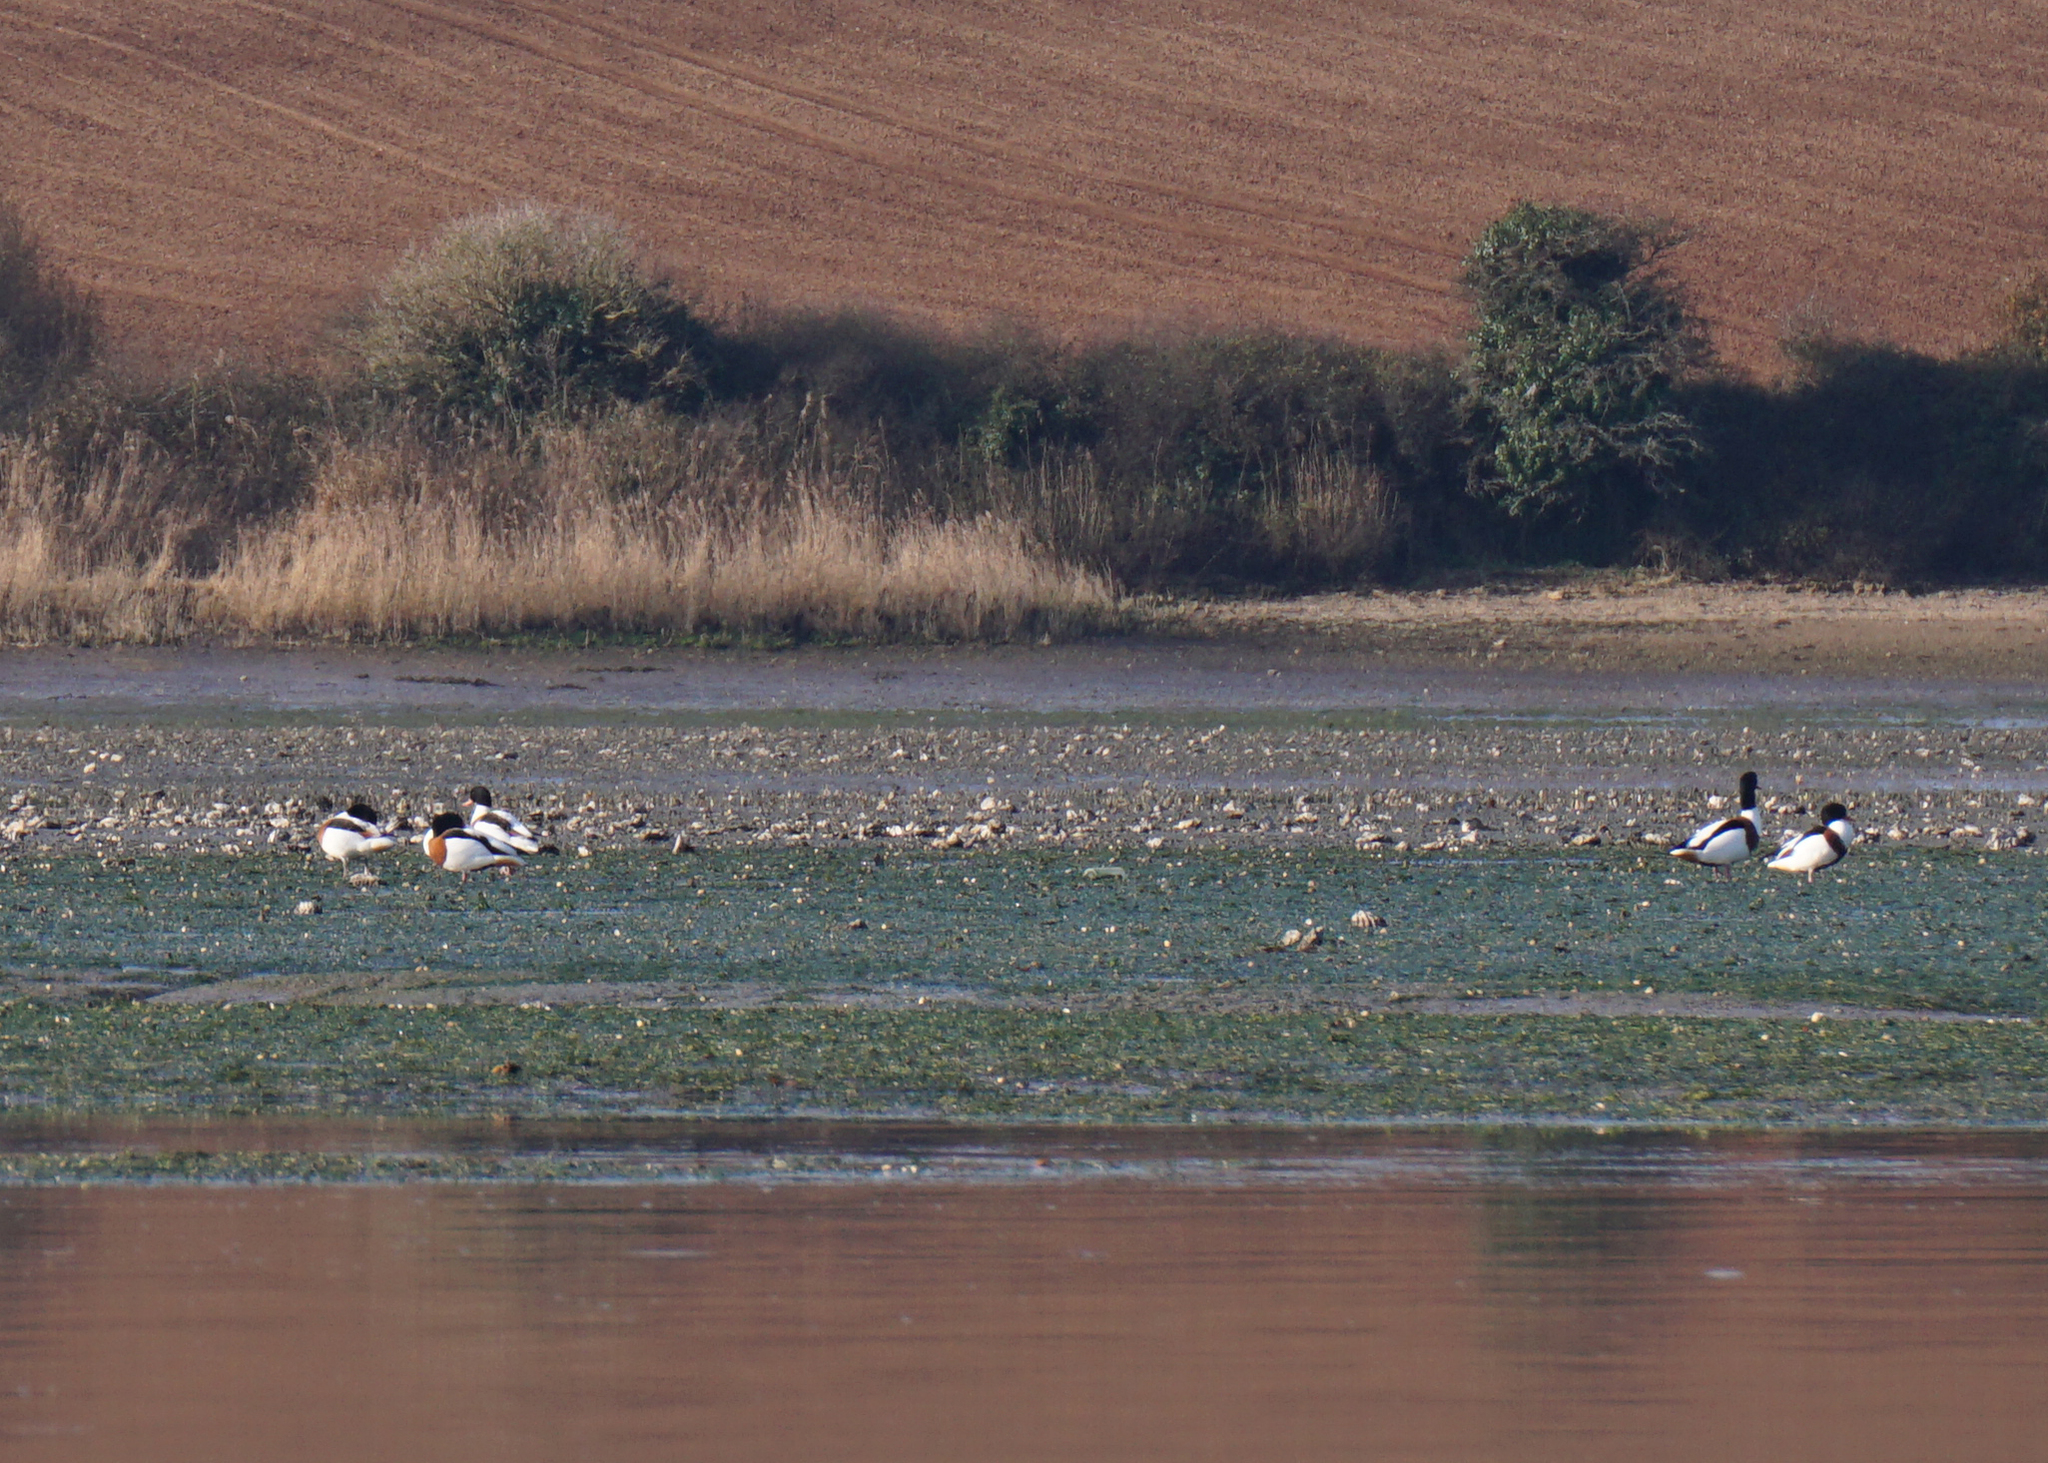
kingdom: Animalia
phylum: Chordata
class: Aves
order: Anseriformes
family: Anatidae
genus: Tadorna
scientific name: Tadorna tadorna
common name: Common shelduck
